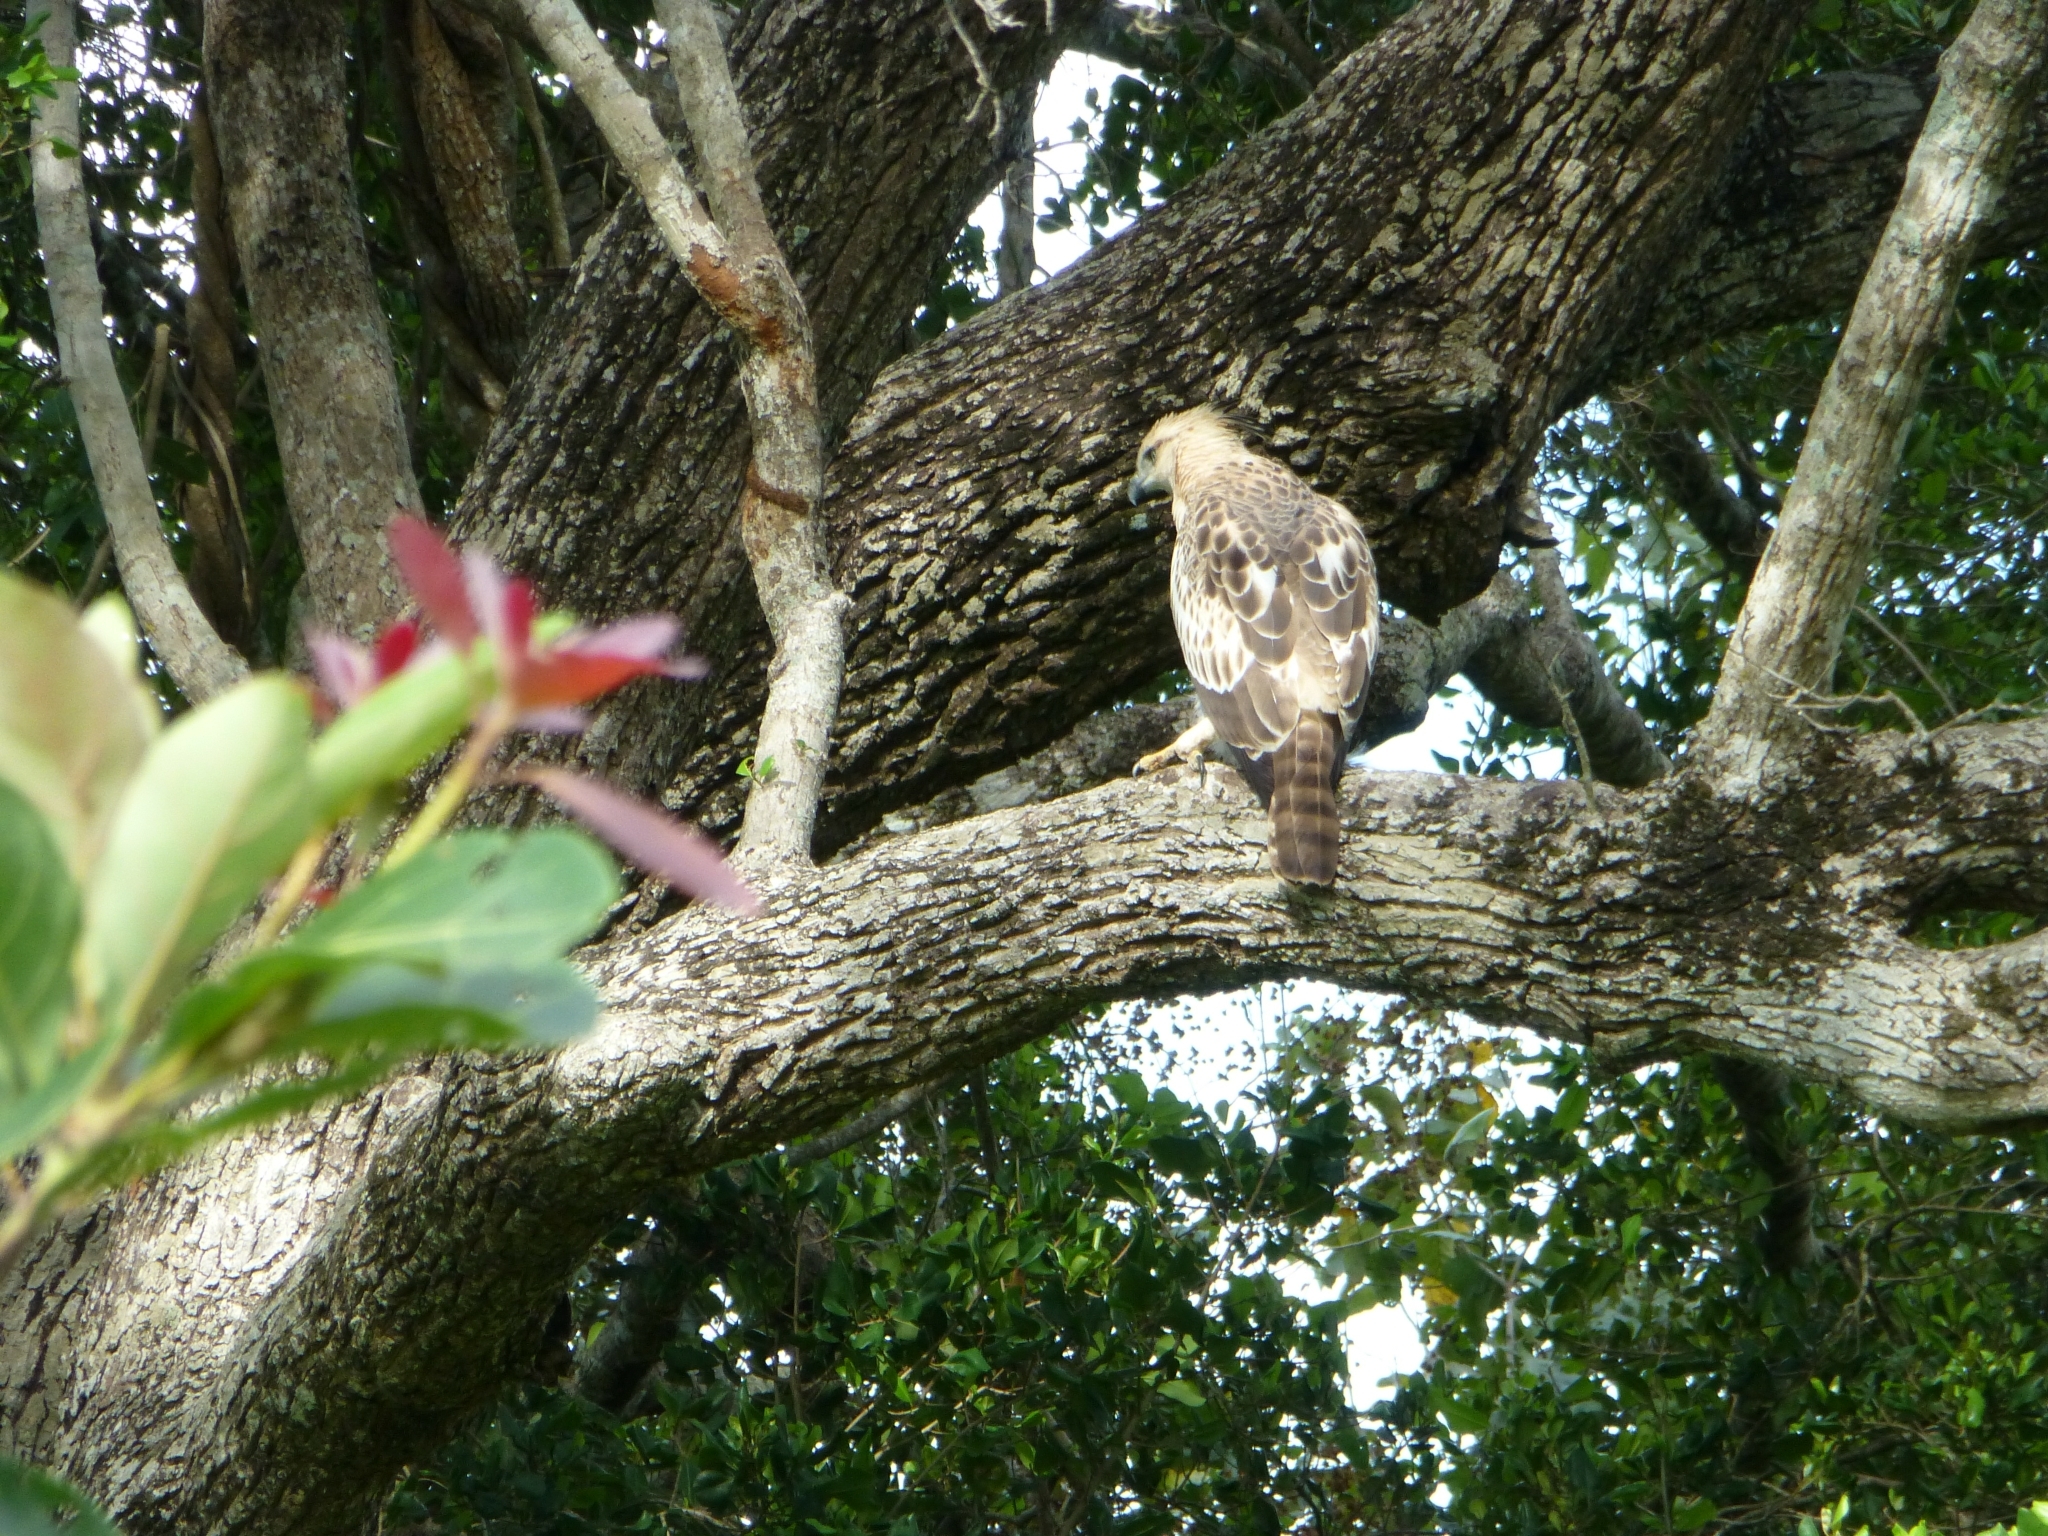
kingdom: Animalia
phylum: Chordata
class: Aves
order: Accipitriformes
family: Accipitridae
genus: Nisaetus
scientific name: Nisaetus cirrhatus
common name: Changeable hawk-eagle
